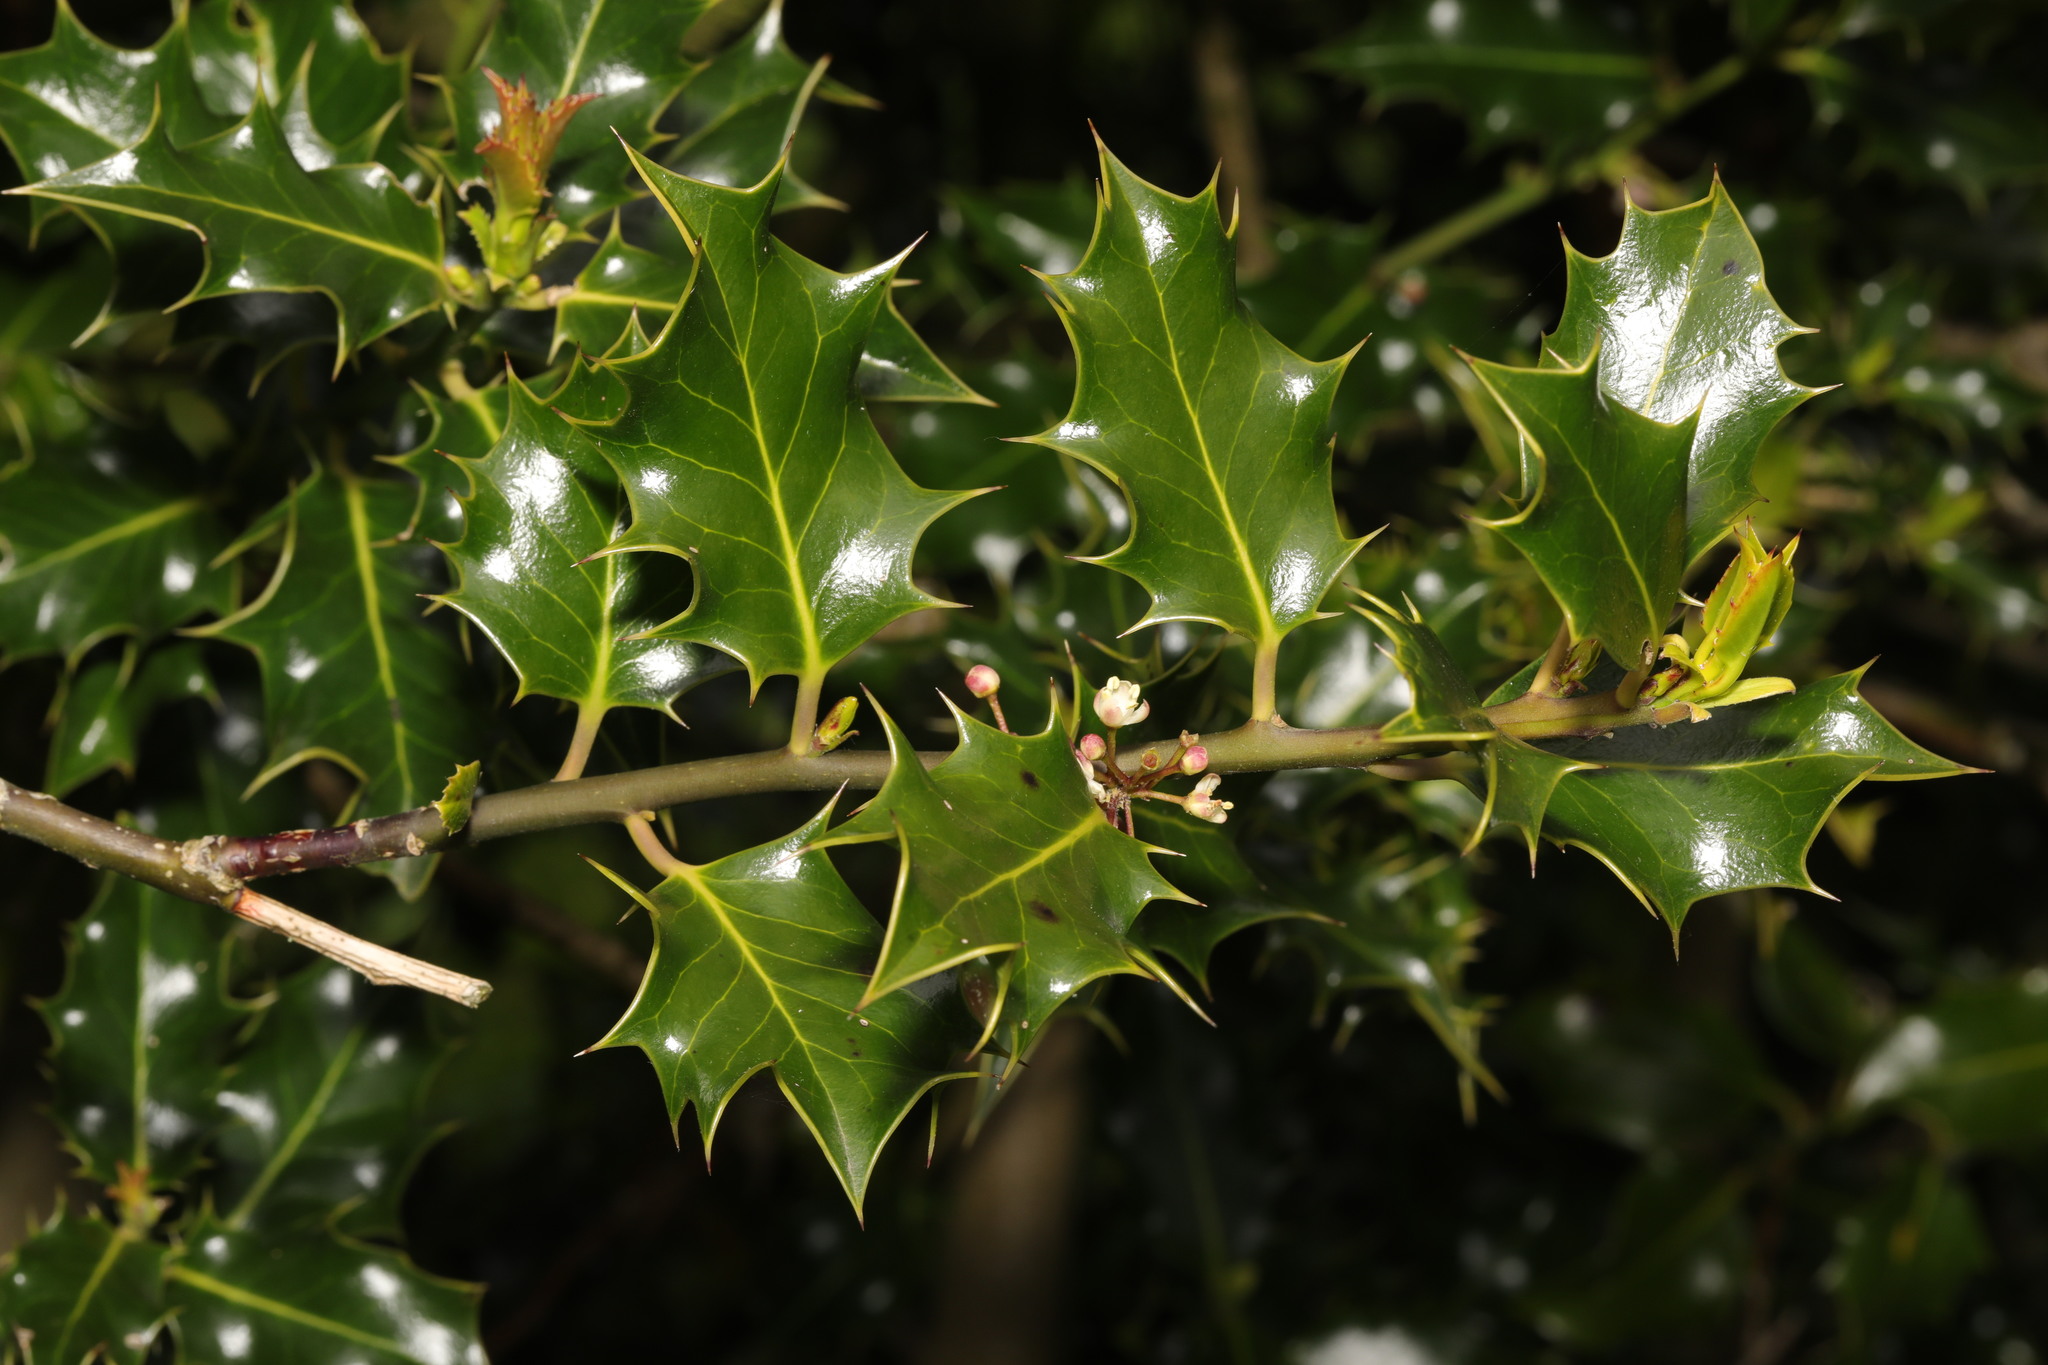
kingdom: Plantae
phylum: Tracheophyta
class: Magnoliopsida
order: Aquifoliales
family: Aquifoliaceae
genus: Ilex
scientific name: Ilex aquifolium
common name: English holly
